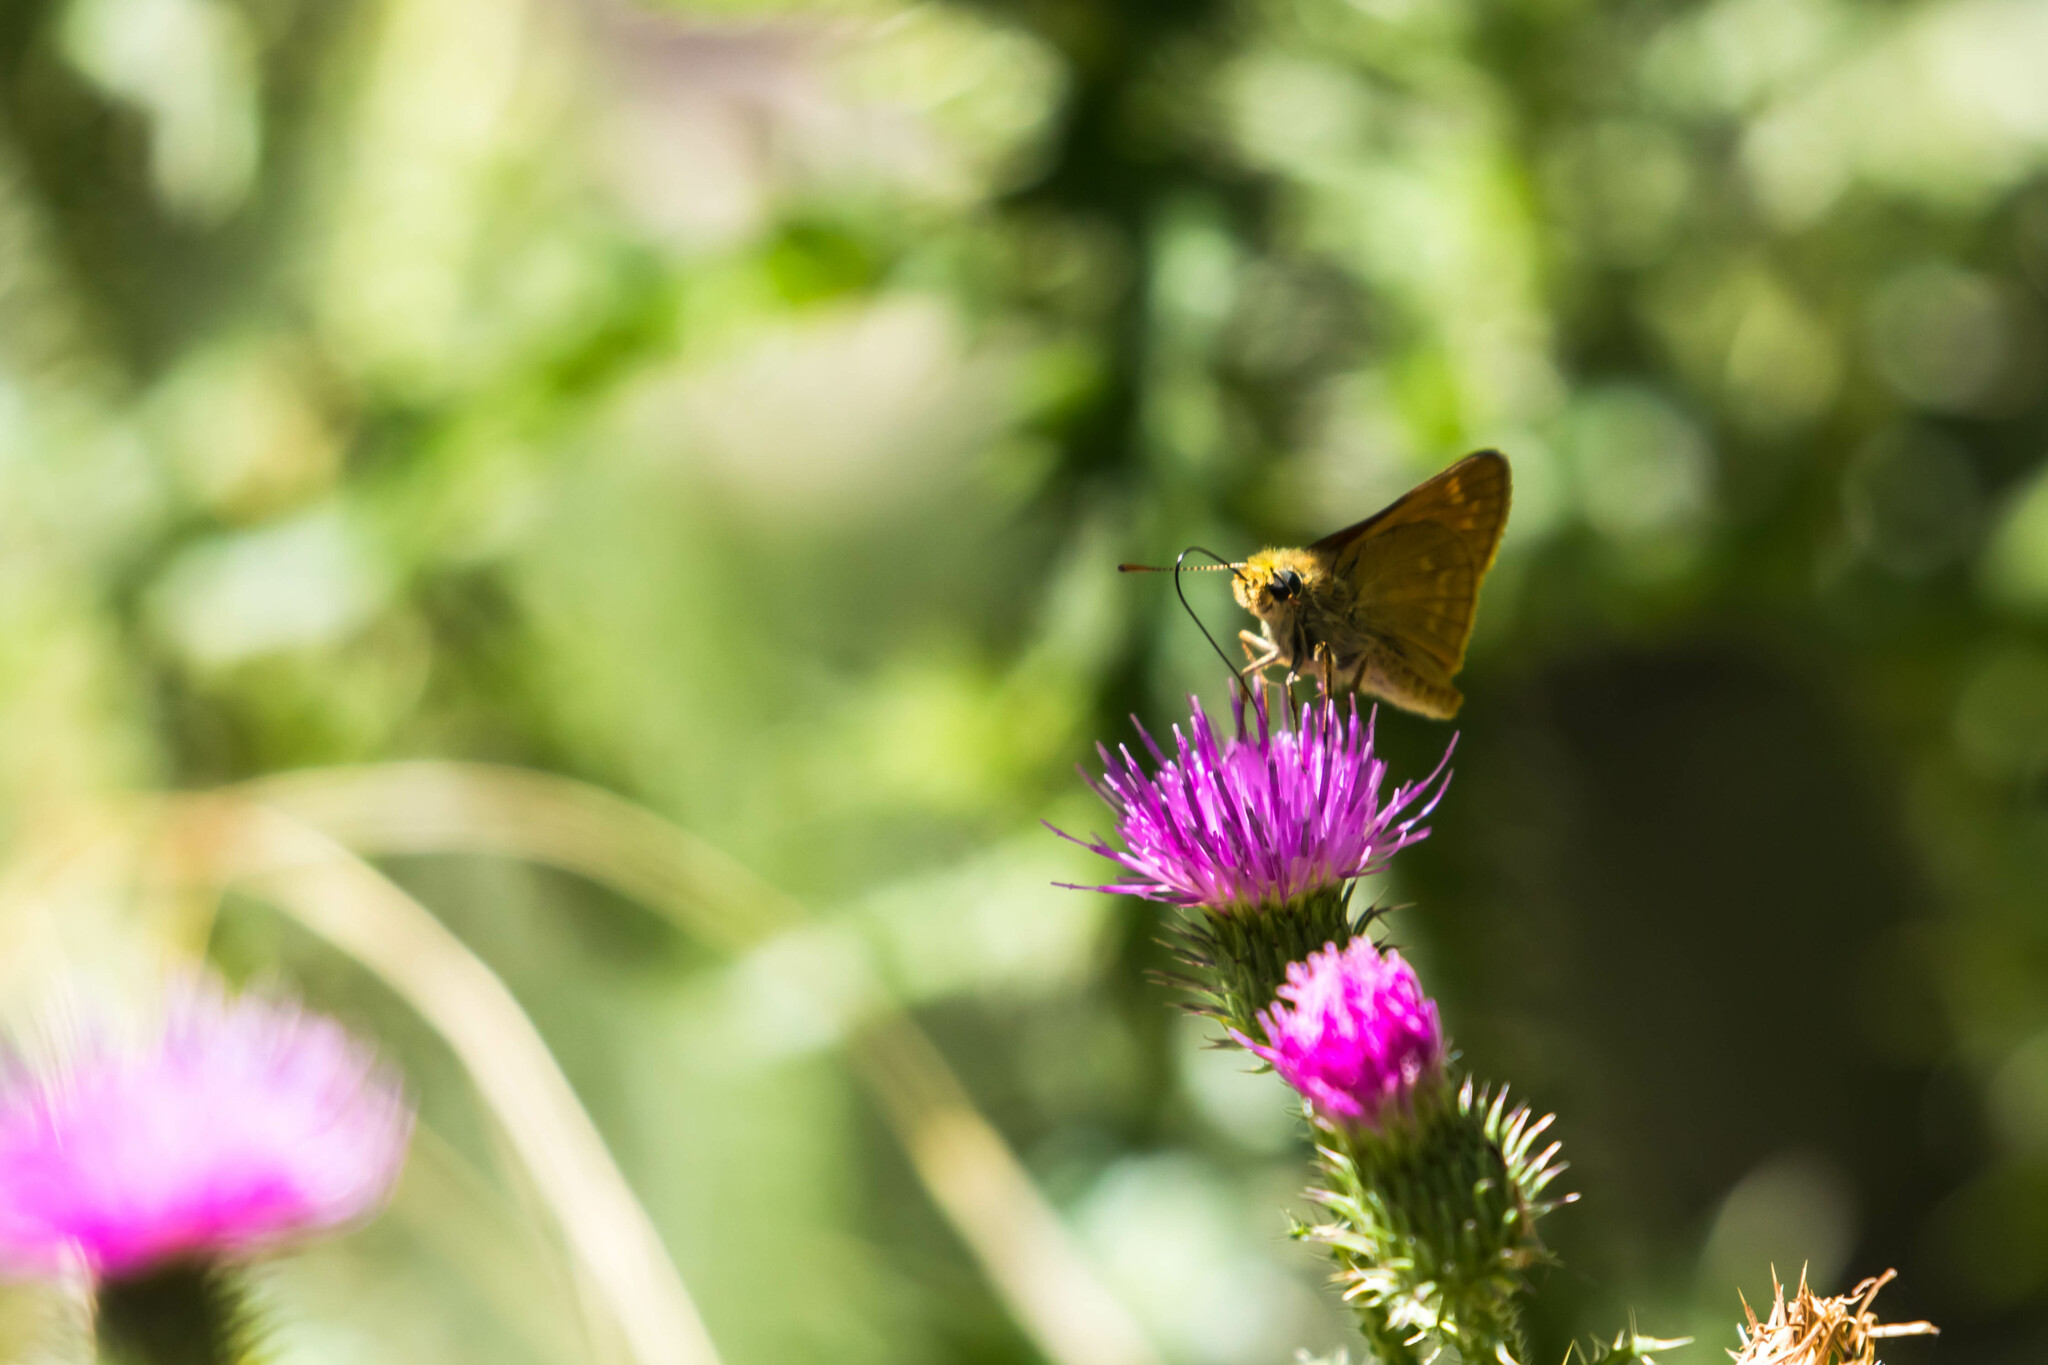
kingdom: Animalia
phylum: Arthropoda
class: Insecta
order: Lepidoptera
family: Hesperiidae
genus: Ochlodes
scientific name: Ochlodes venata
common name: Large skipper
